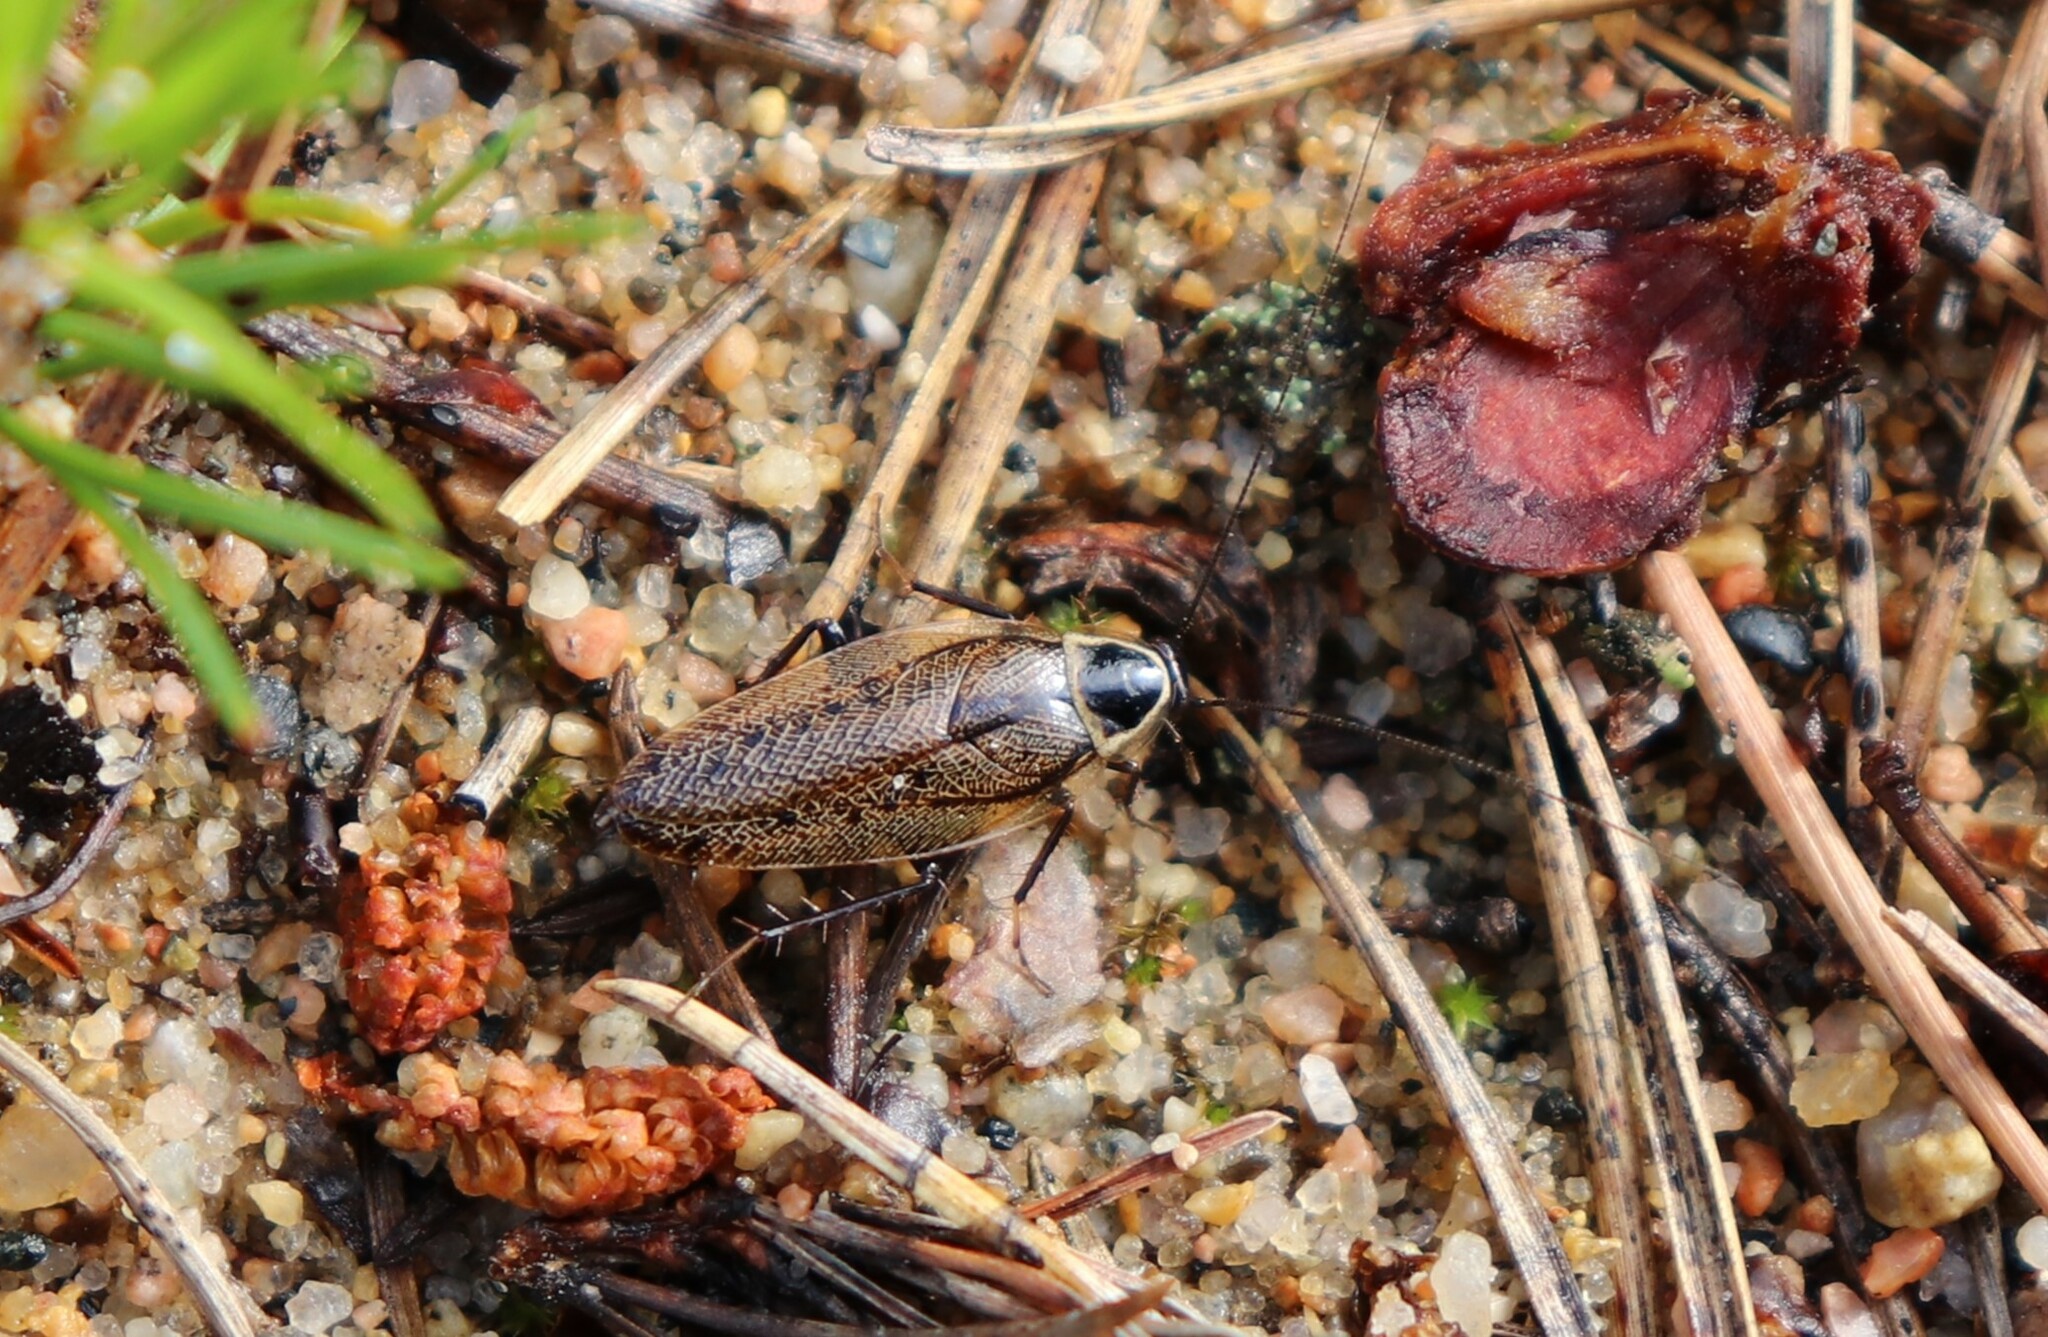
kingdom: Animalia
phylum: Arthropoda
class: Insecta
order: Blattodea
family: Ectobiidae
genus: Ectobius
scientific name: Ectobius sylvestris
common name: Forest cockroach
